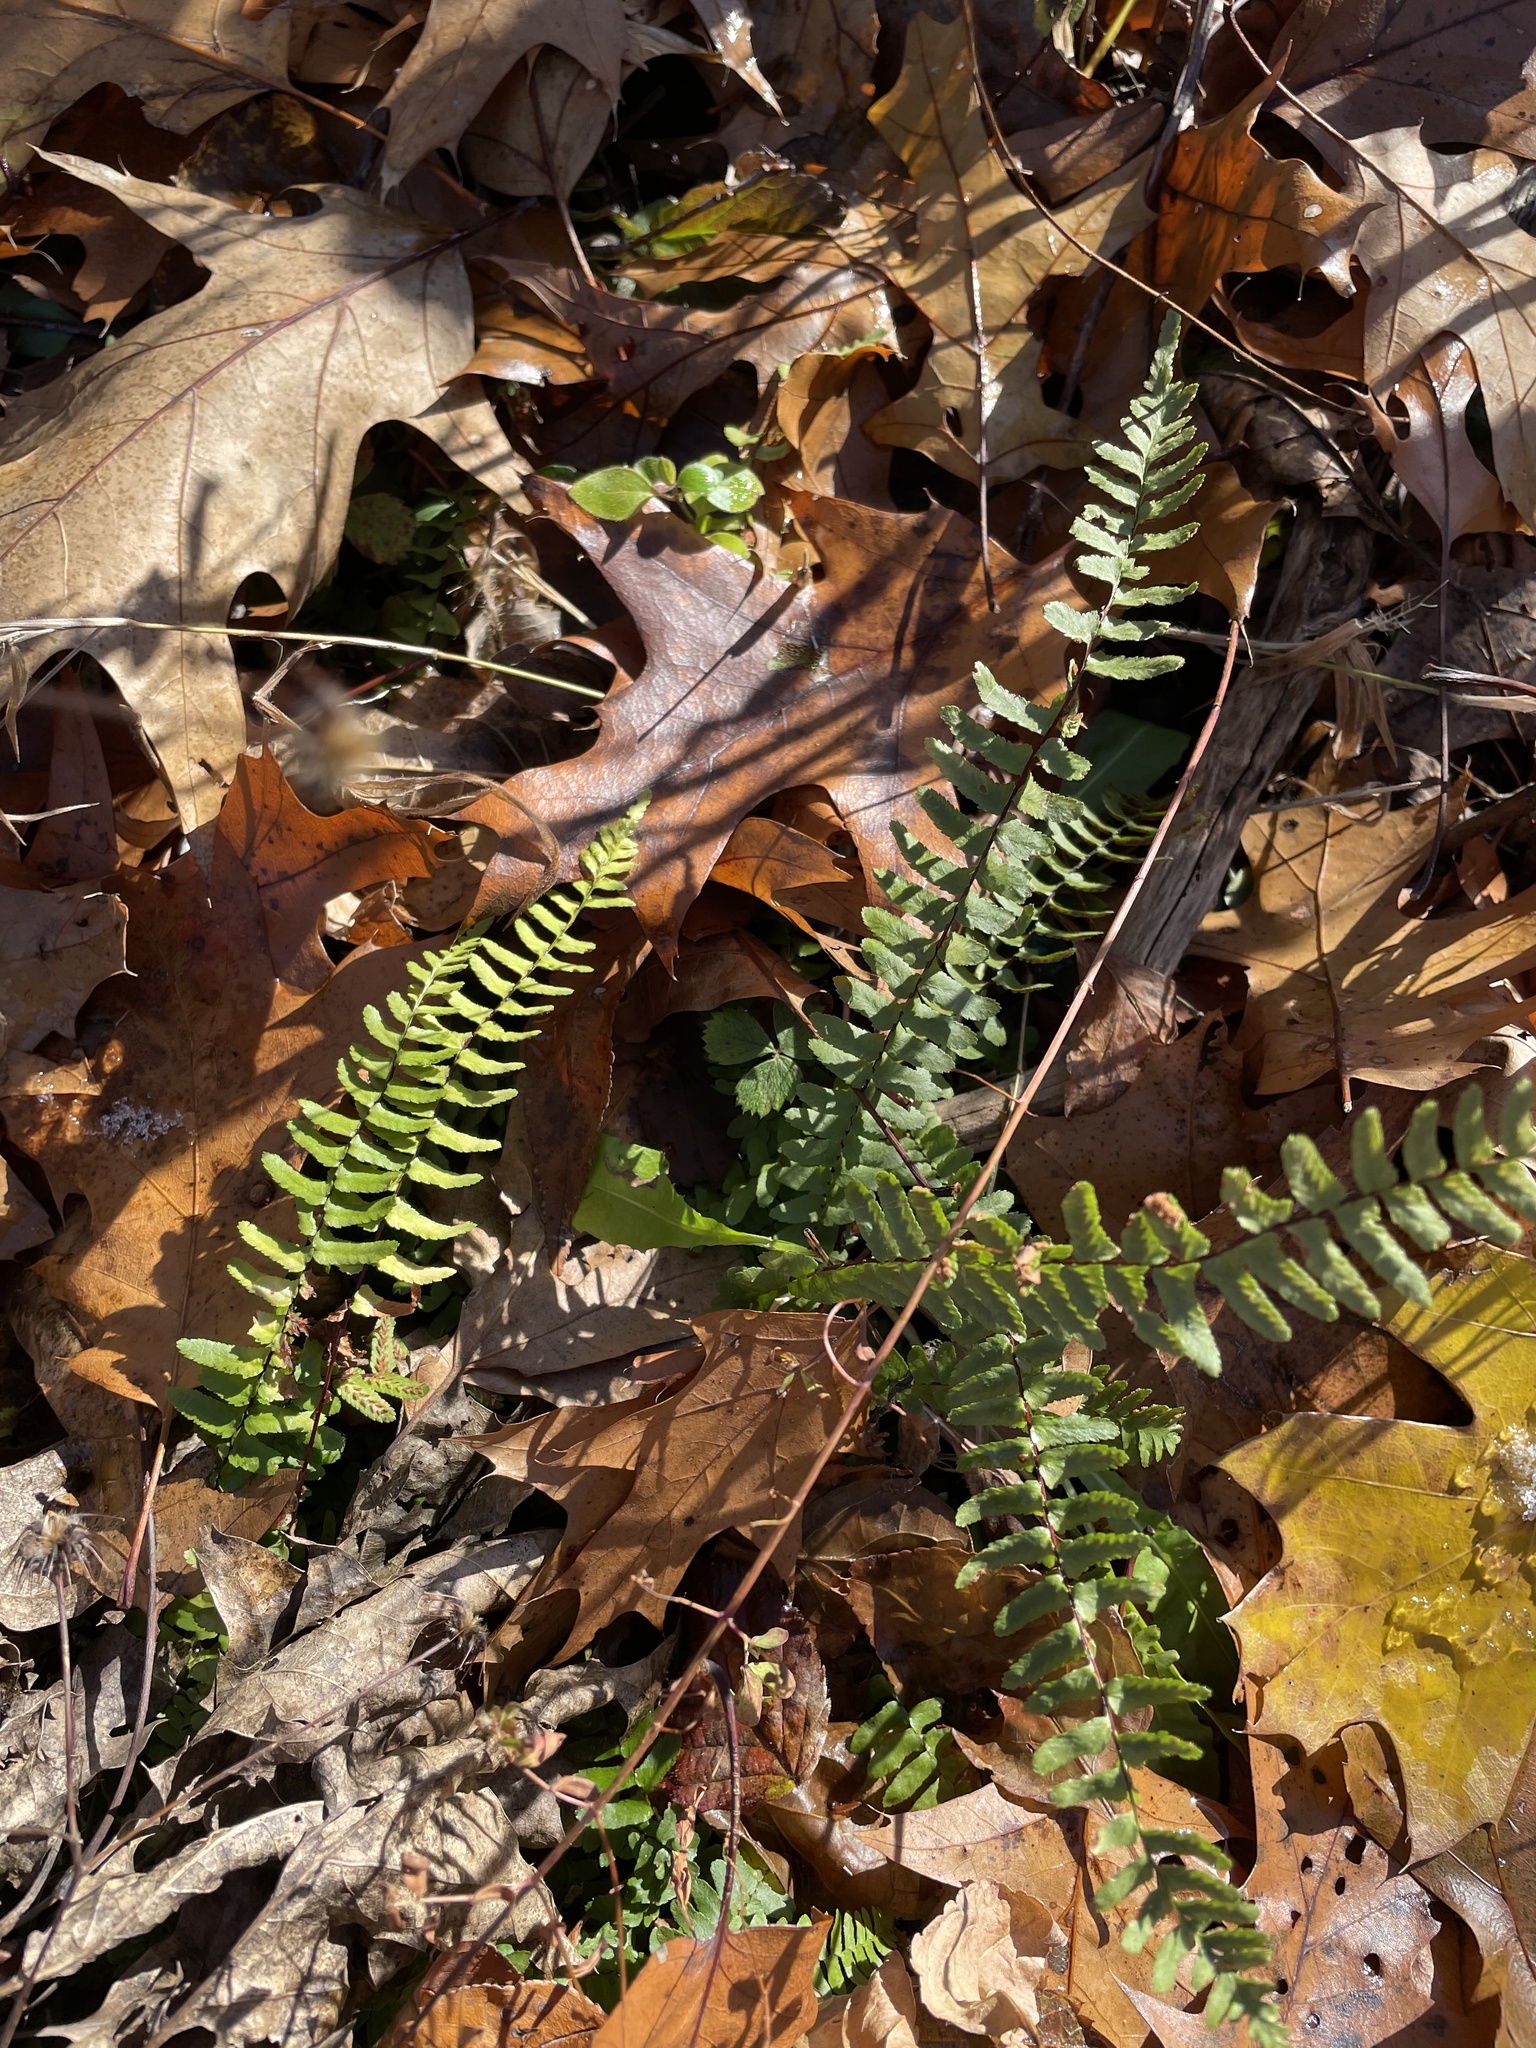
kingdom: Plantae
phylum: Tracheophyta
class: Polypodiopsida
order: Polypodiales
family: Aspleniaceae
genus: Asplenium
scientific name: Asplenium platyneuron
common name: Ebony spleenwort
